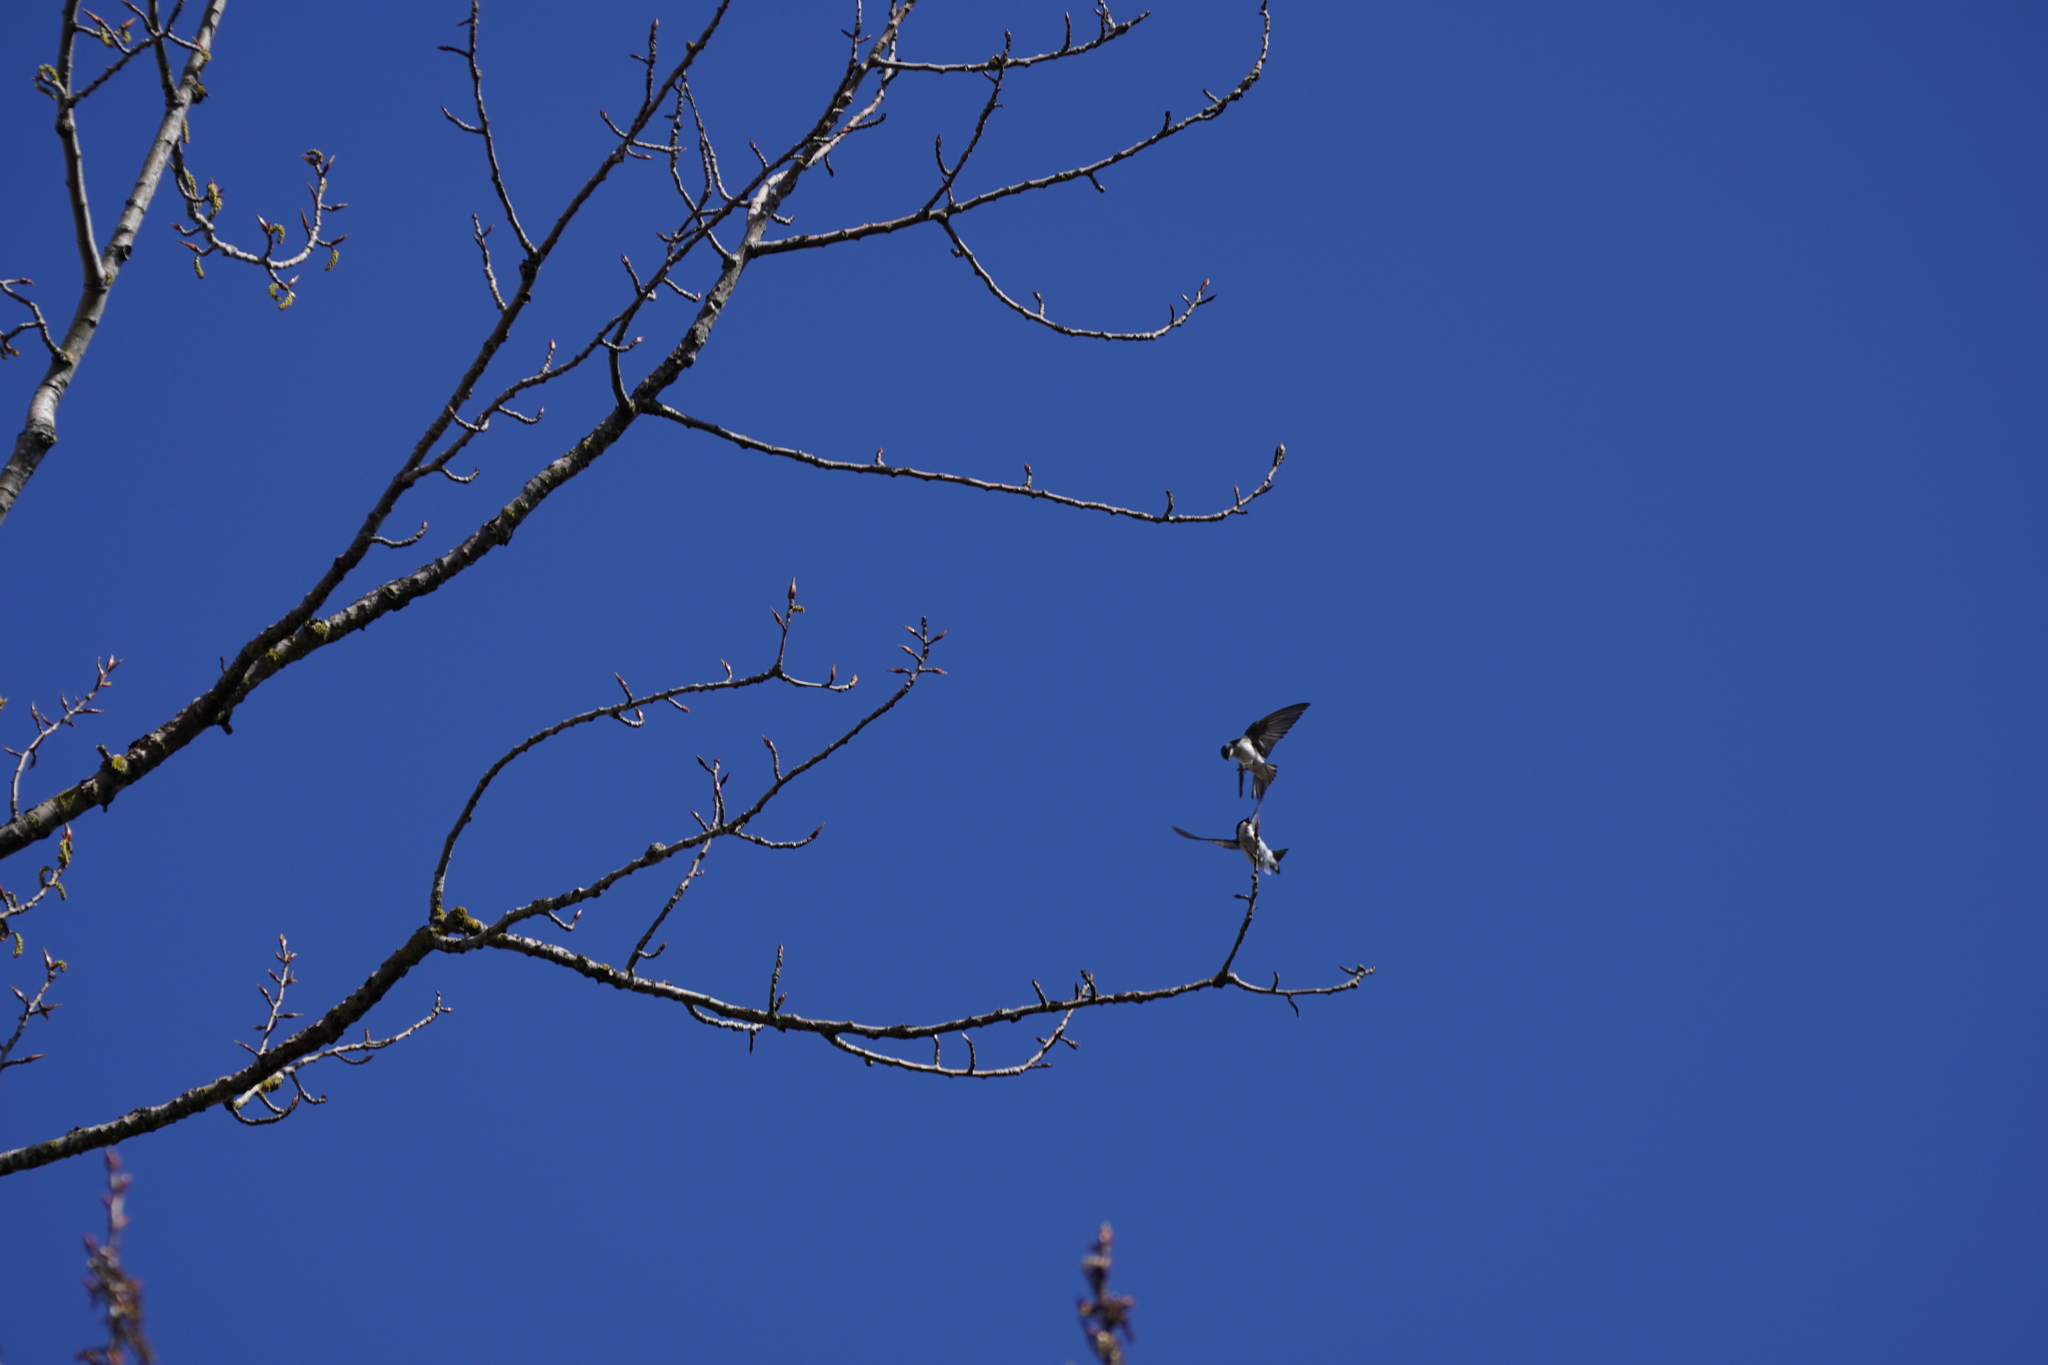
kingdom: Animalia
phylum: Chordata
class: Aves
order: Passeriformes
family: Hirundinidae
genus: Tachycineta
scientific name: Tachycineta bicolor
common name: Tree swallow
